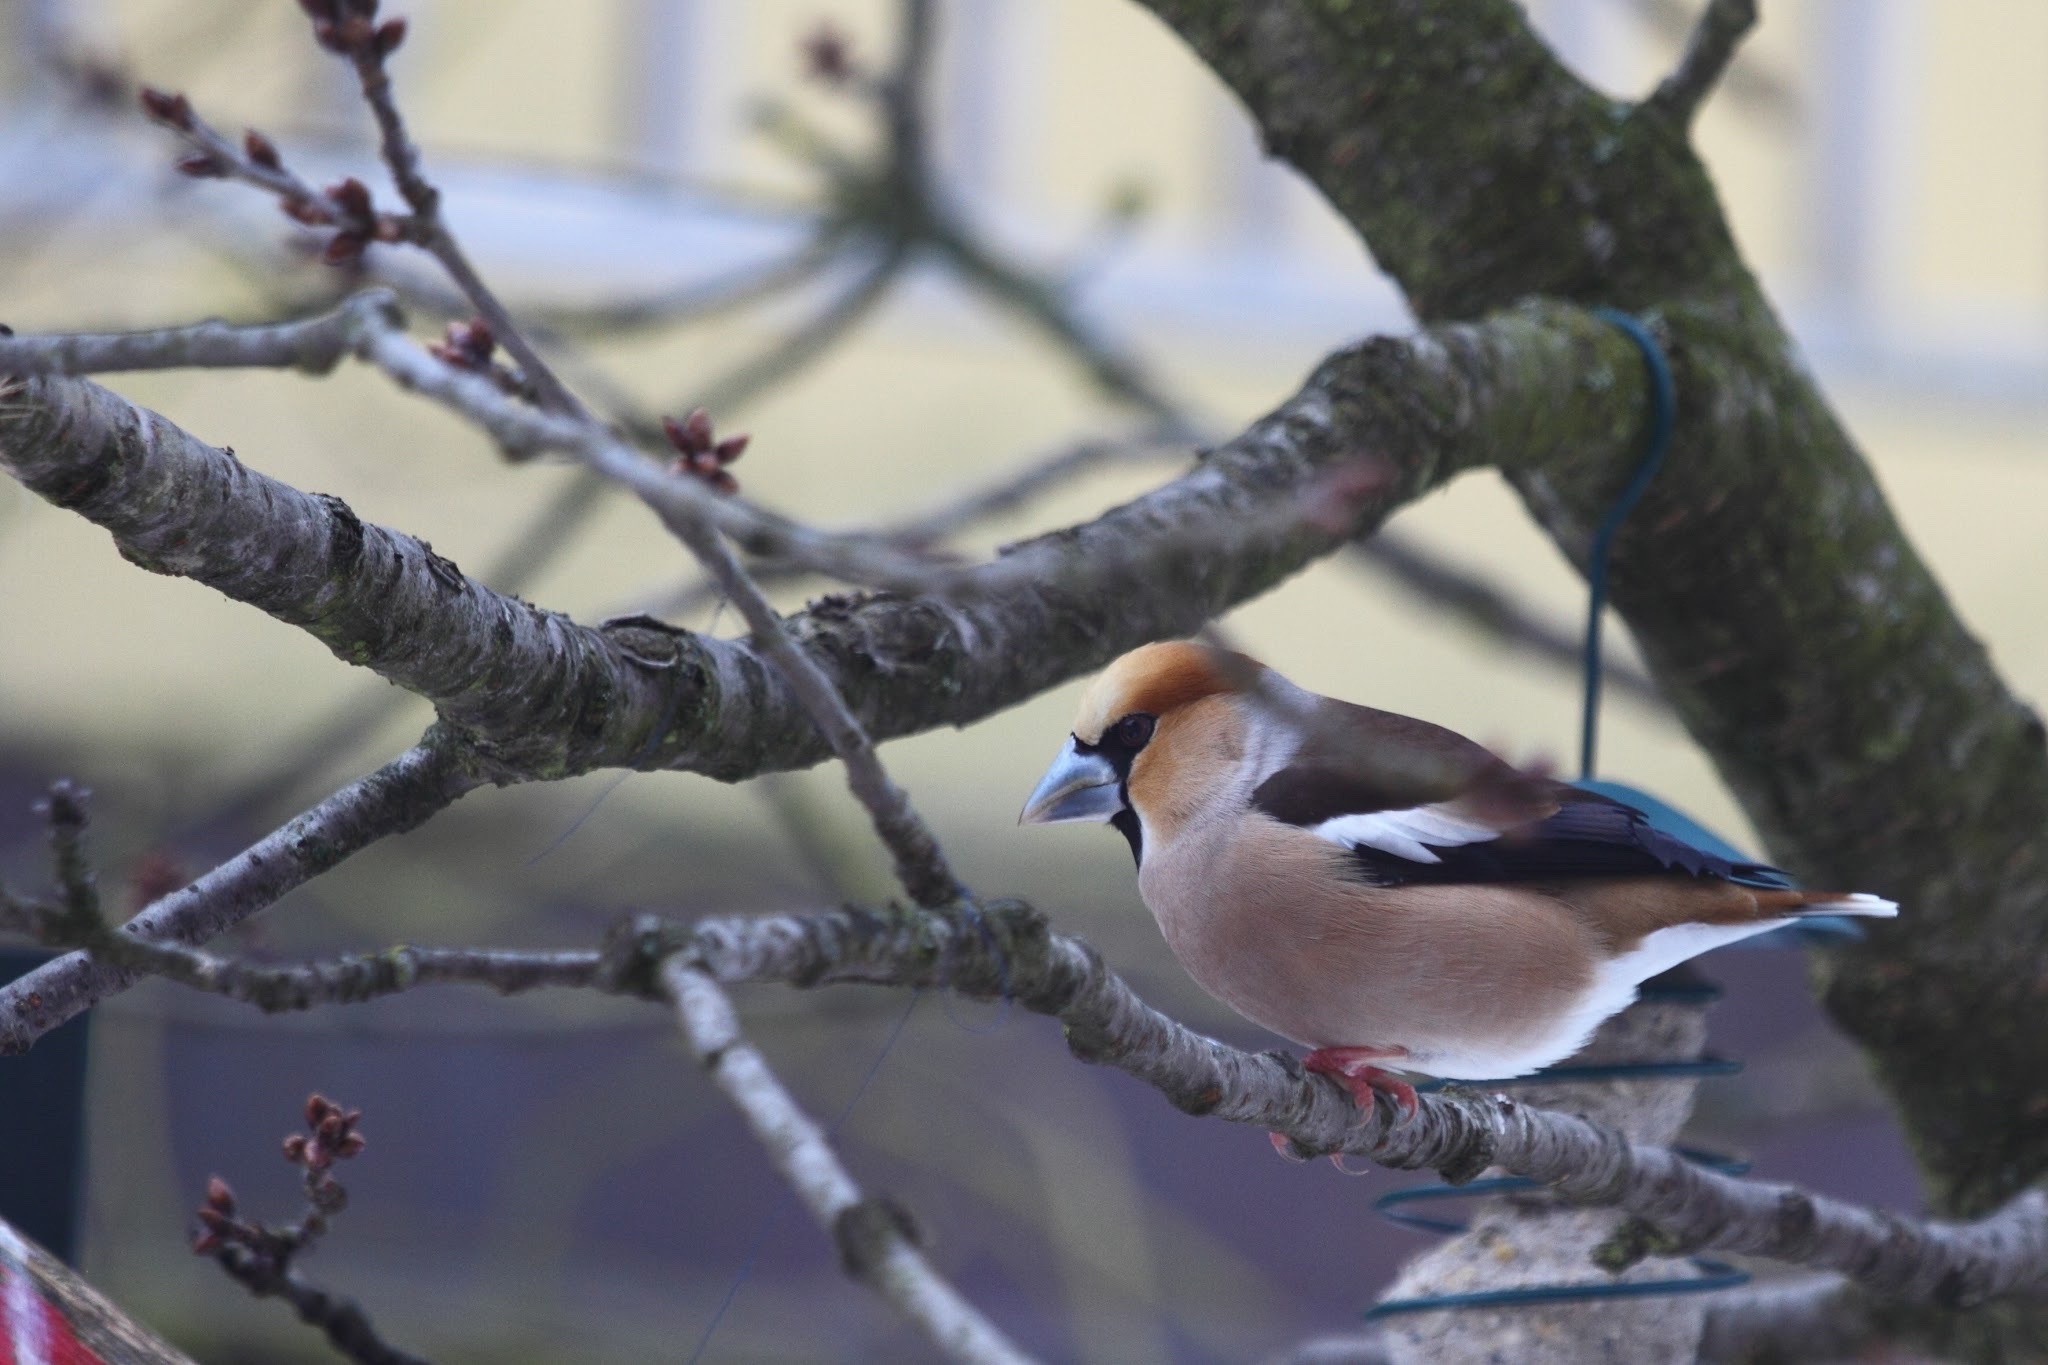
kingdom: Animalia
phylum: Chordata
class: Aves
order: Passeriformes
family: Fringillidae
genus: Coccothraustes
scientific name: Coccothraustes coccothraustes
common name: Hawfinch
